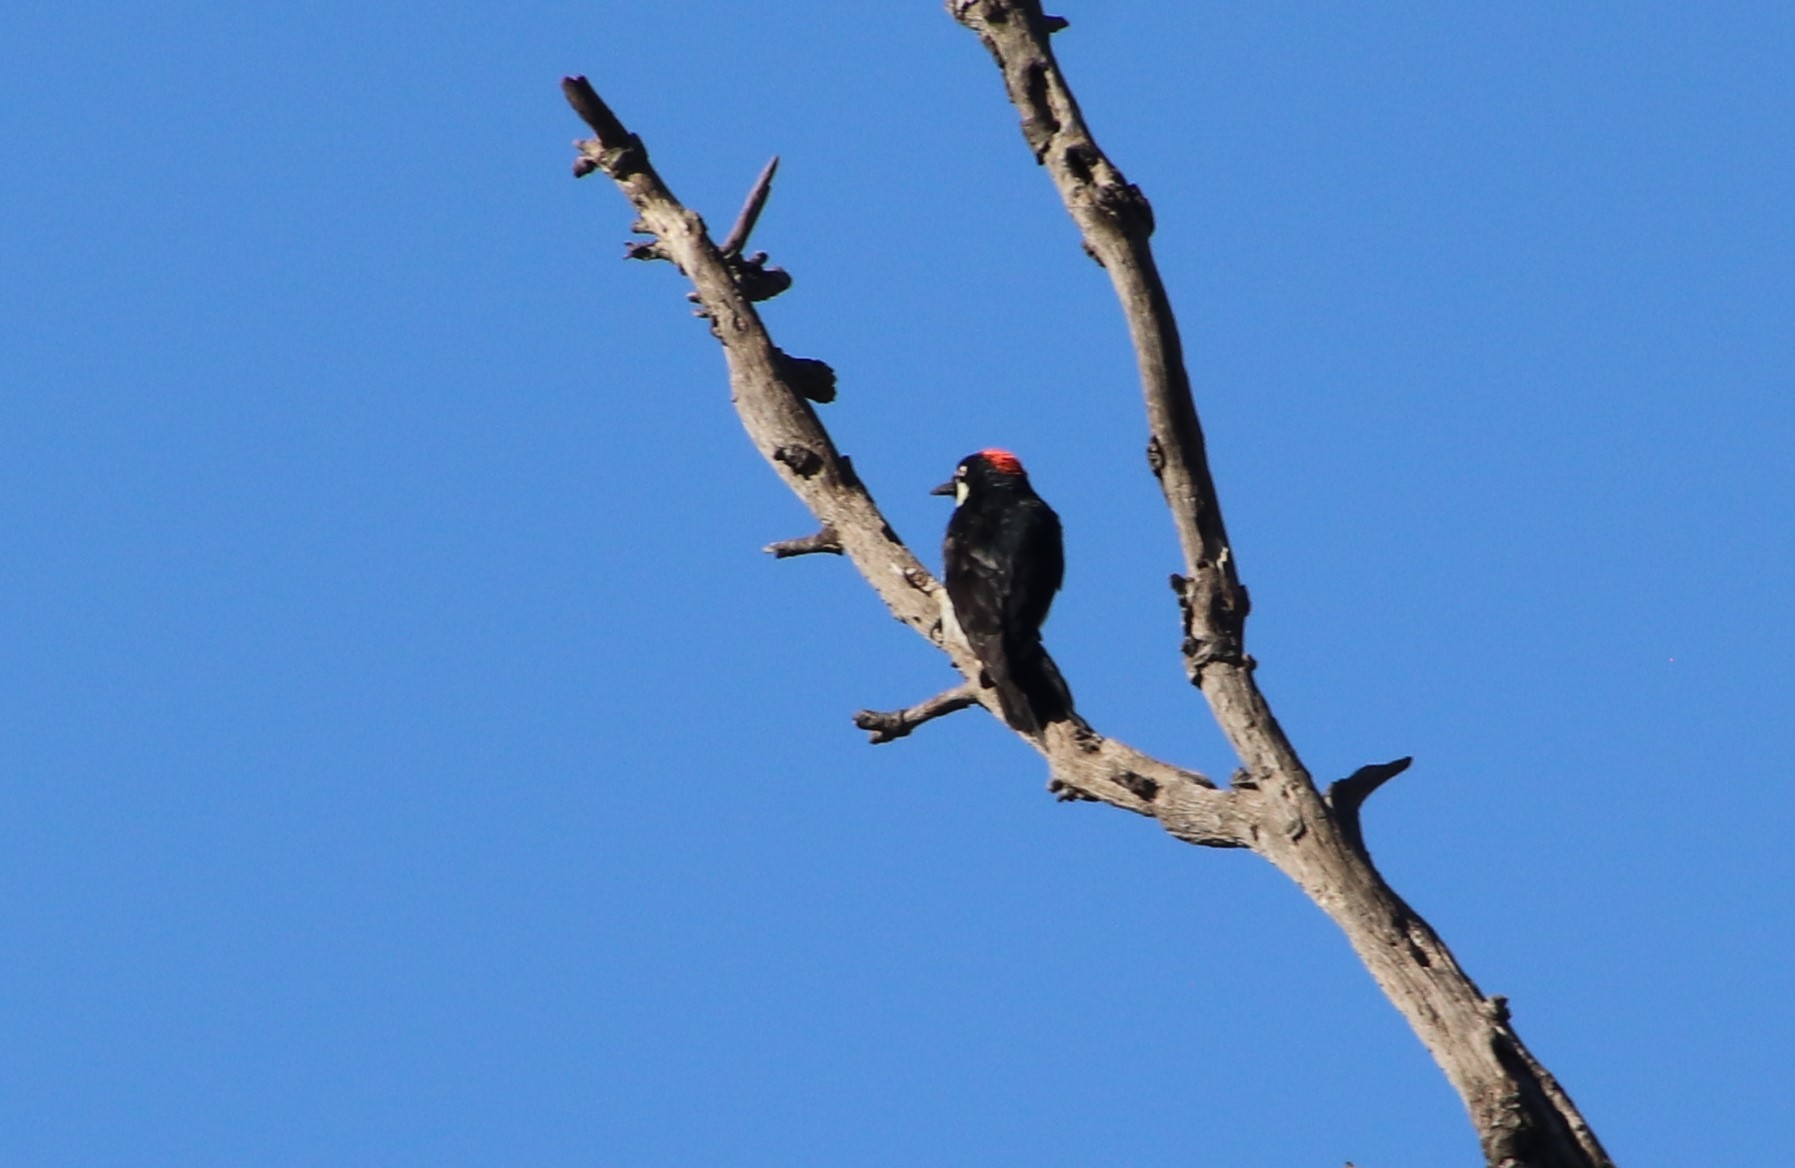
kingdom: Animalia
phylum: Chordata
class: Aves
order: Piciformes
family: Picidae
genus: Melanerpes
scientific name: Melanerpes formicivorus
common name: Acorn woodpecker
